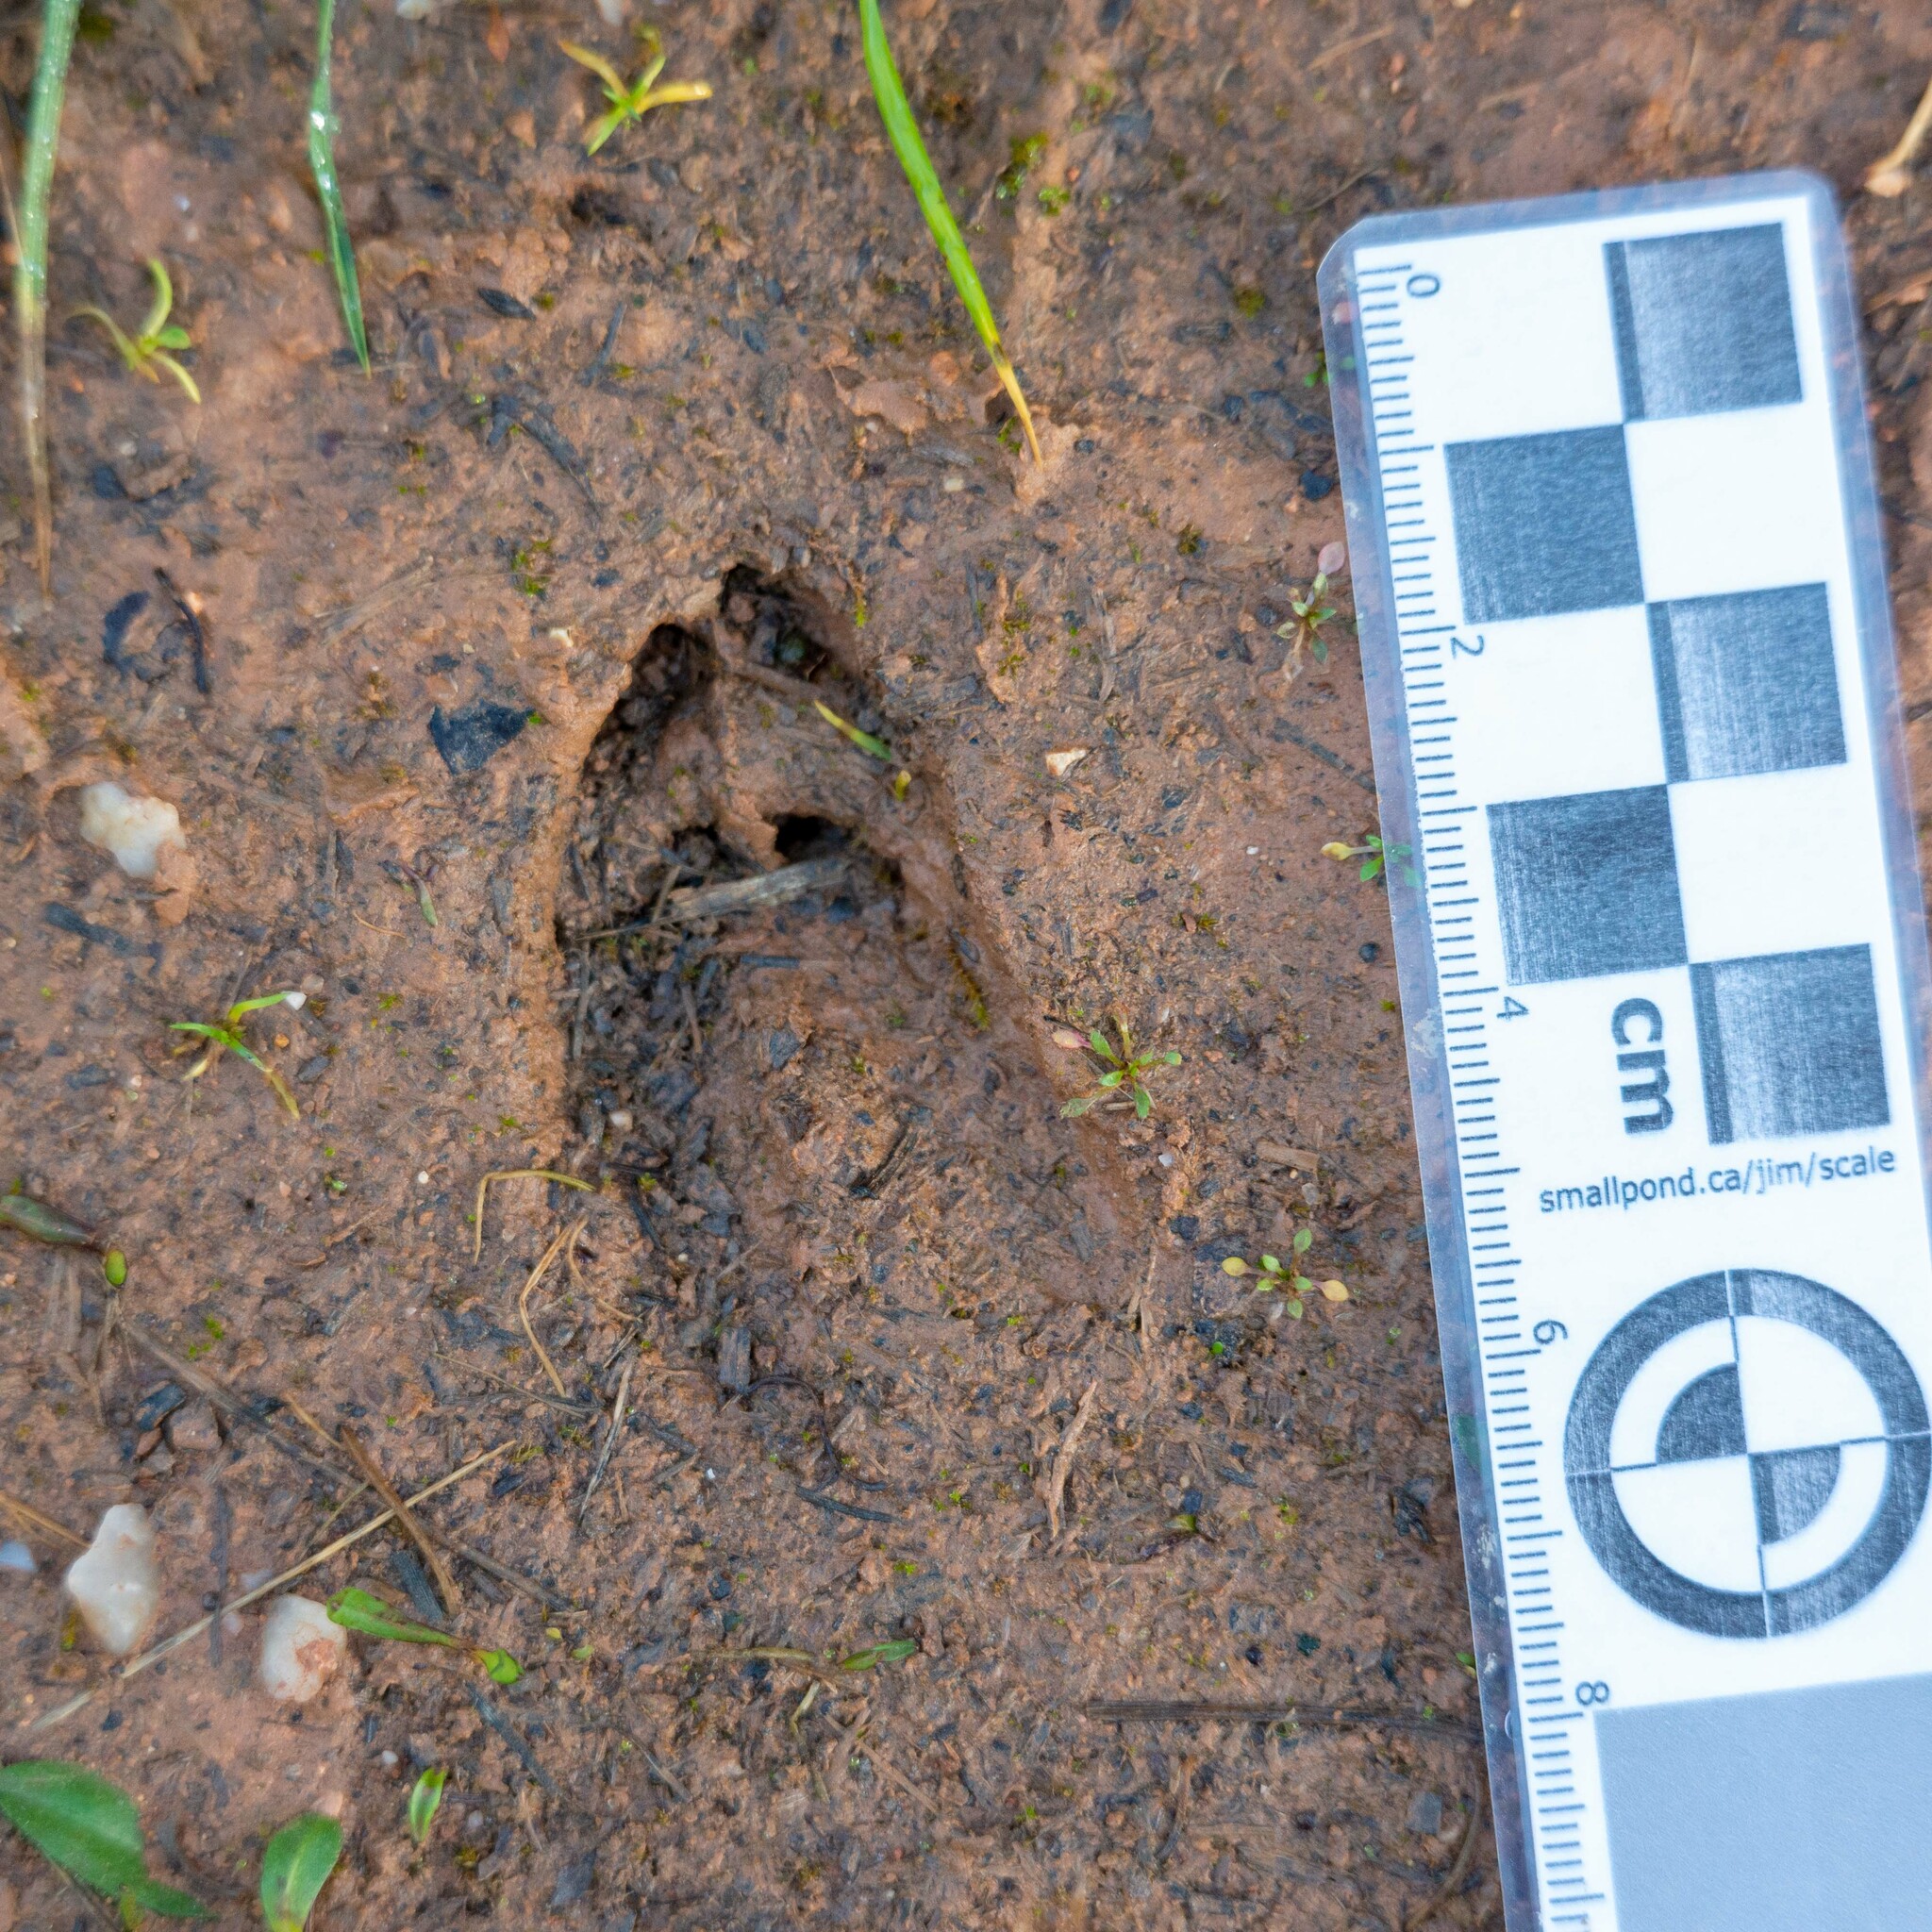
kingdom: Animalia
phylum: Chordata
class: Mammalia
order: Artiodactyla
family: Cervidae
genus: Capreolus
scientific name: Capreolus capreolus
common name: Western roe deer
